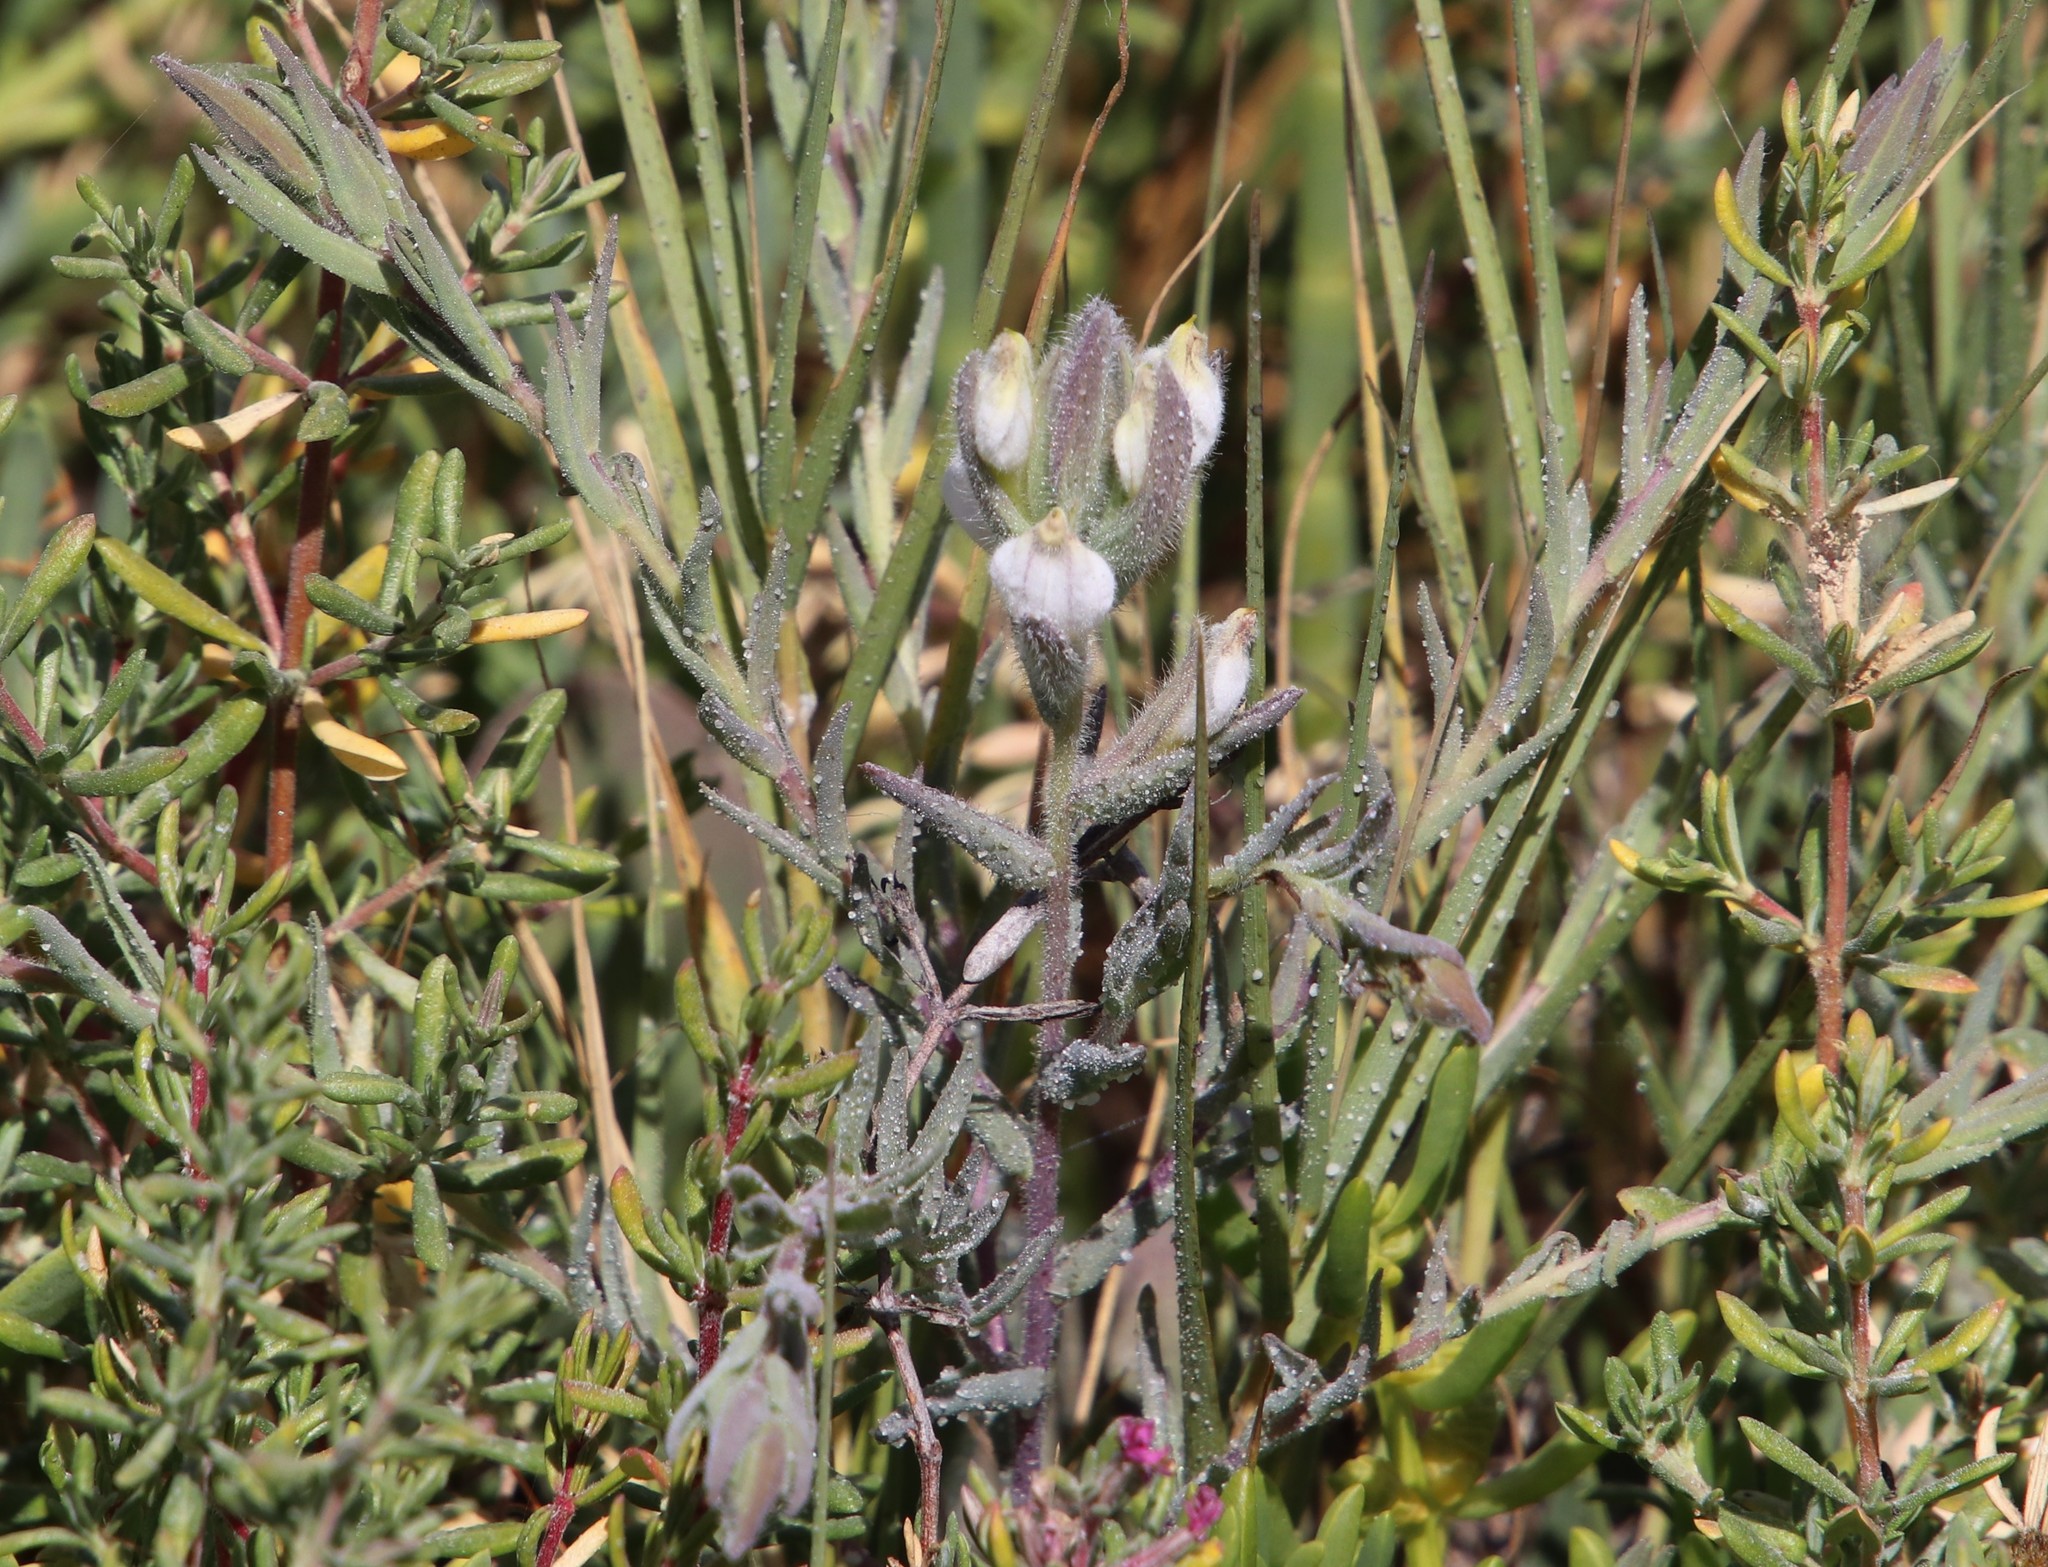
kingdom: Plantae
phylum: Tracheophyta
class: Magnoliopsida
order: Lamiales
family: Orobanchaceae
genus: Chloropyron
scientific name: Chloropyron maritimum
